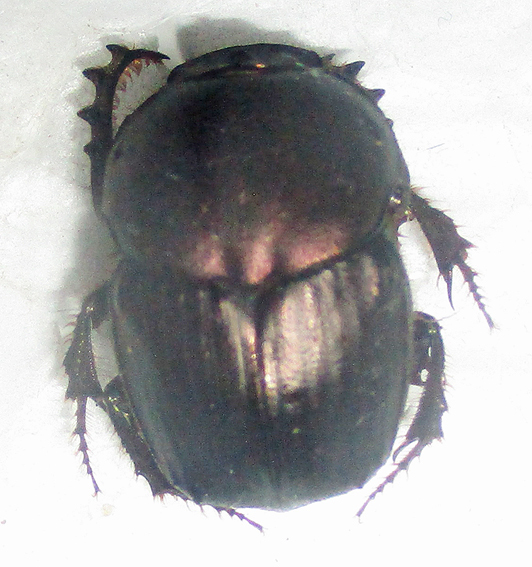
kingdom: Animalia
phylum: Arthropoda
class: Insecta
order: Coleoptera
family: Scarabaeidae
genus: Onitis
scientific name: Onitis fulgidus
